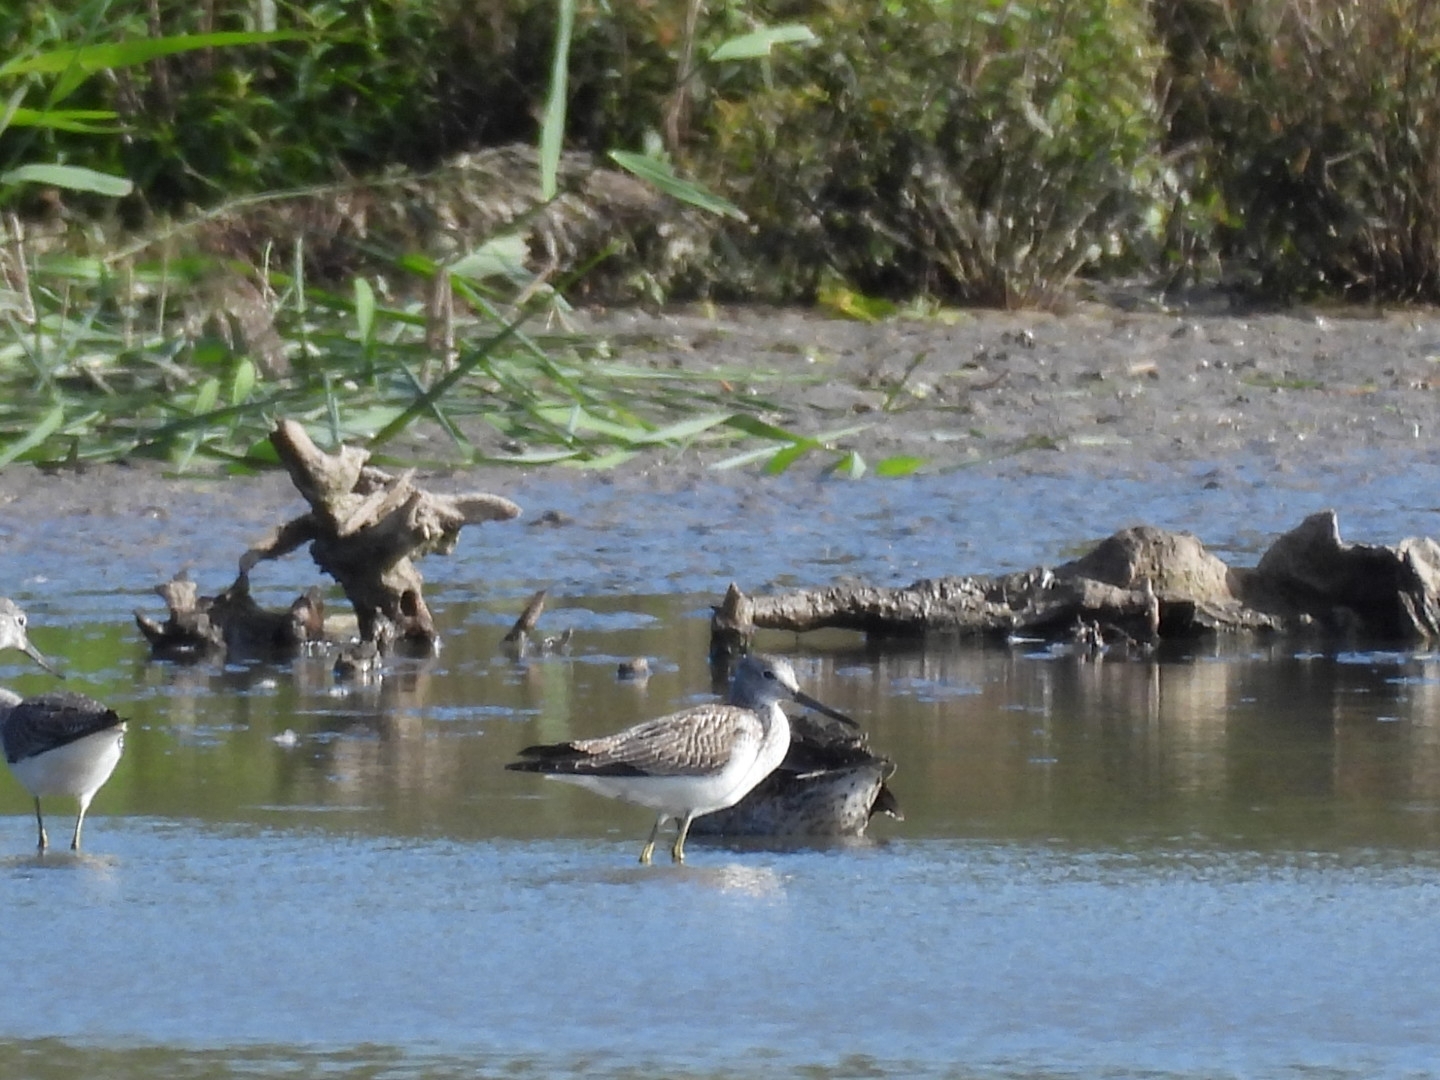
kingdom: Animalia
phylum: Chordata
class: Aves
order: Charadriiformes
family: Scolopacidae
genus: Tringa
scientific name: Tringa nebularia
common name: Common greenshank
